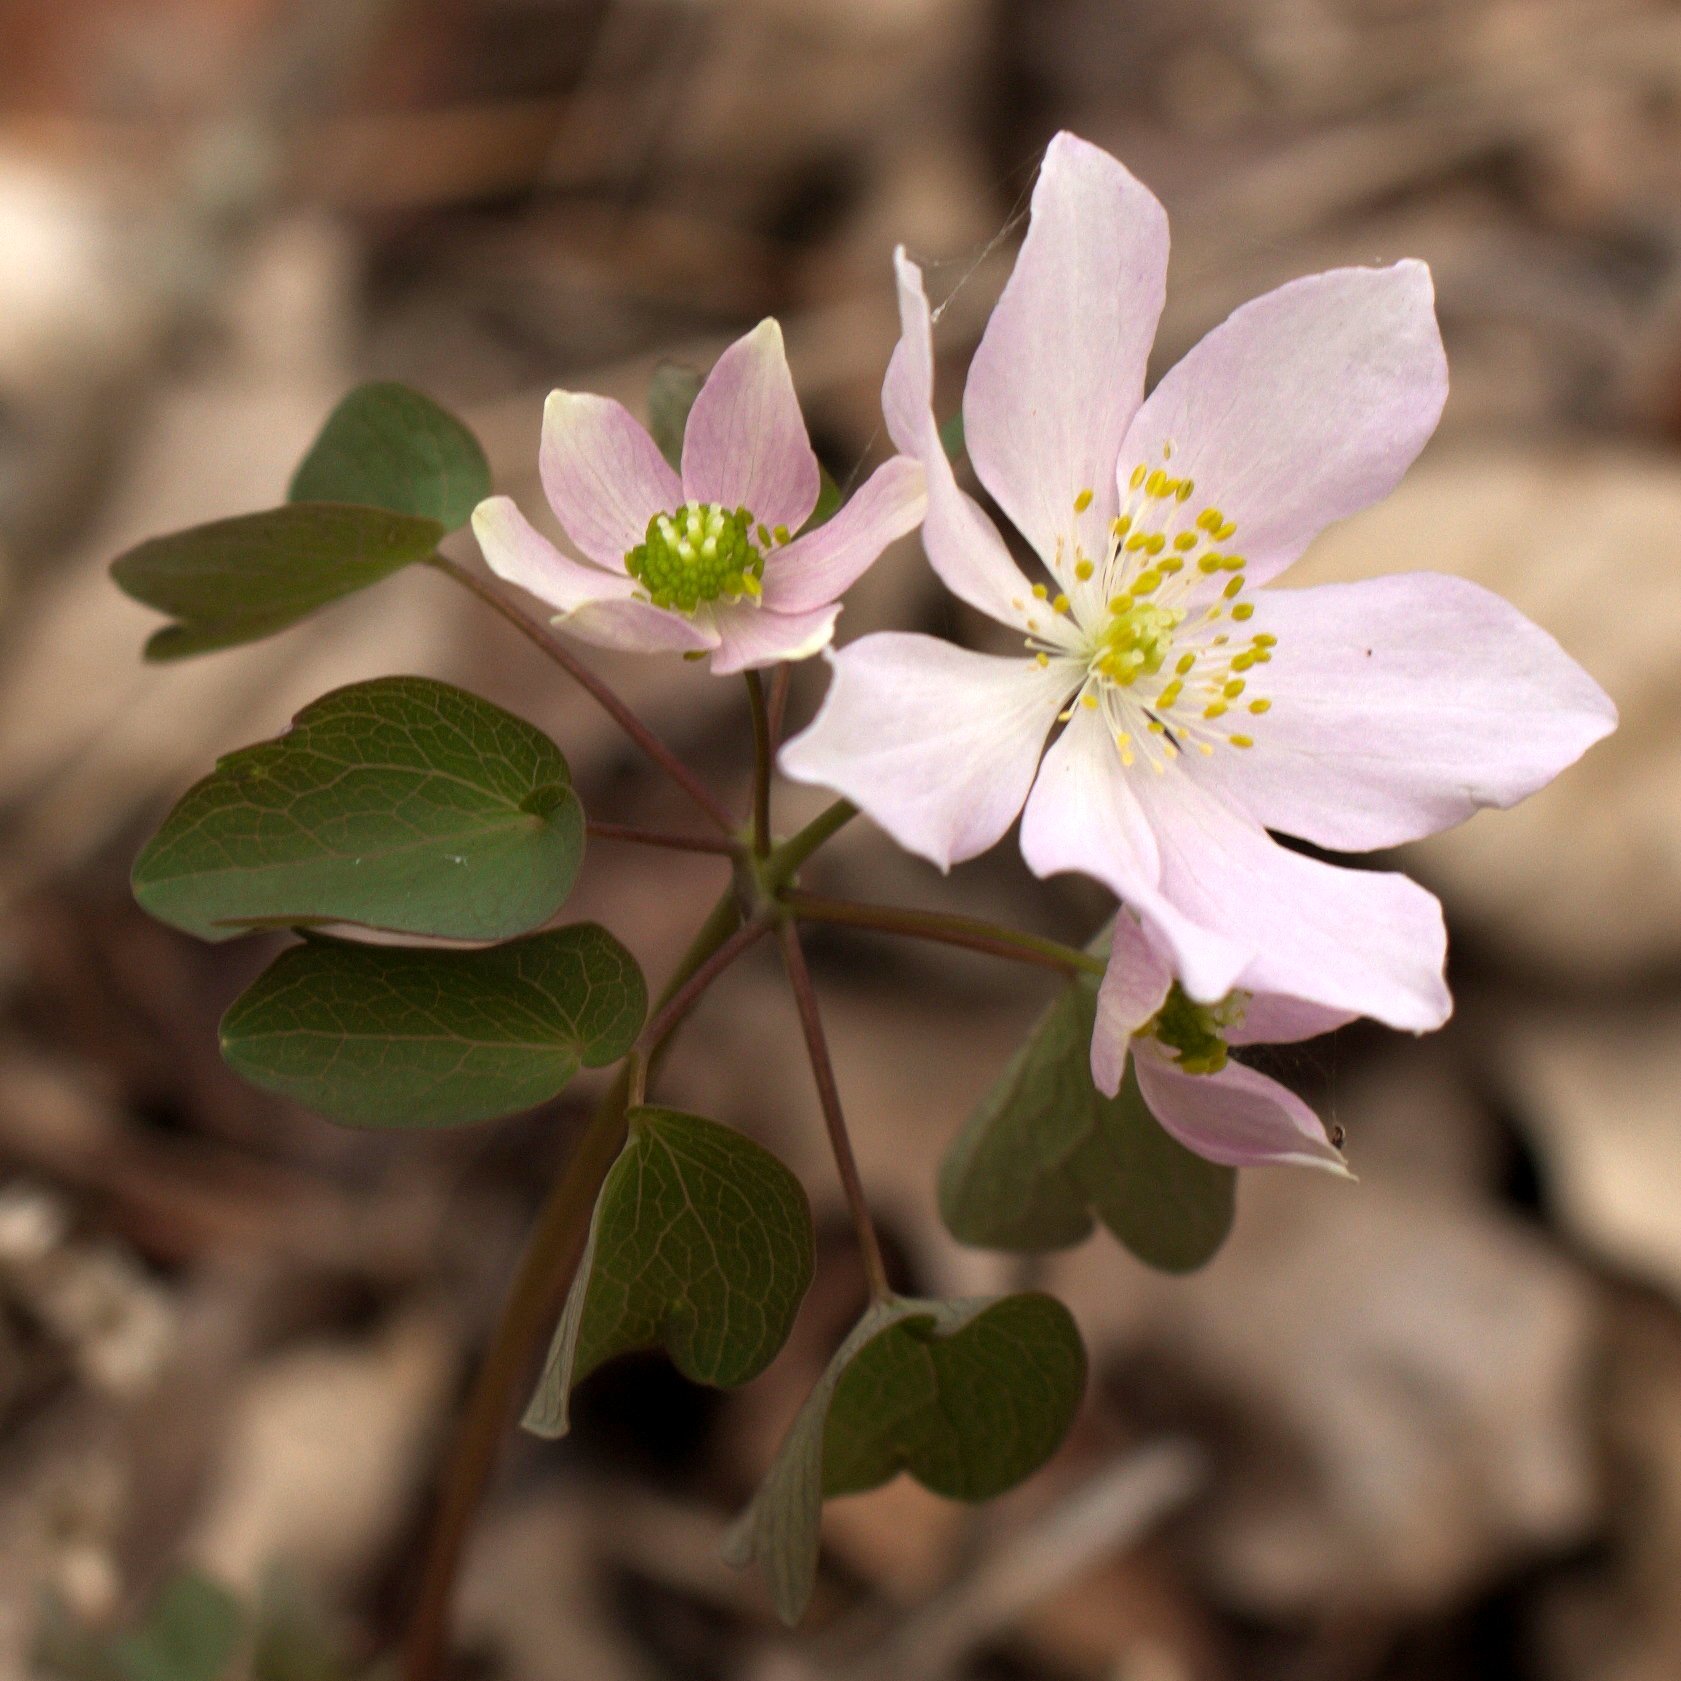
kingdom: Plantae
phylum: Tracheophyta
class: Magnoliopsida
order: Ranunculales
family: Ranunculaceae
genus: Thalictrum
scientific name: Thalictrum thalictroides
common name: Rue-anemone
